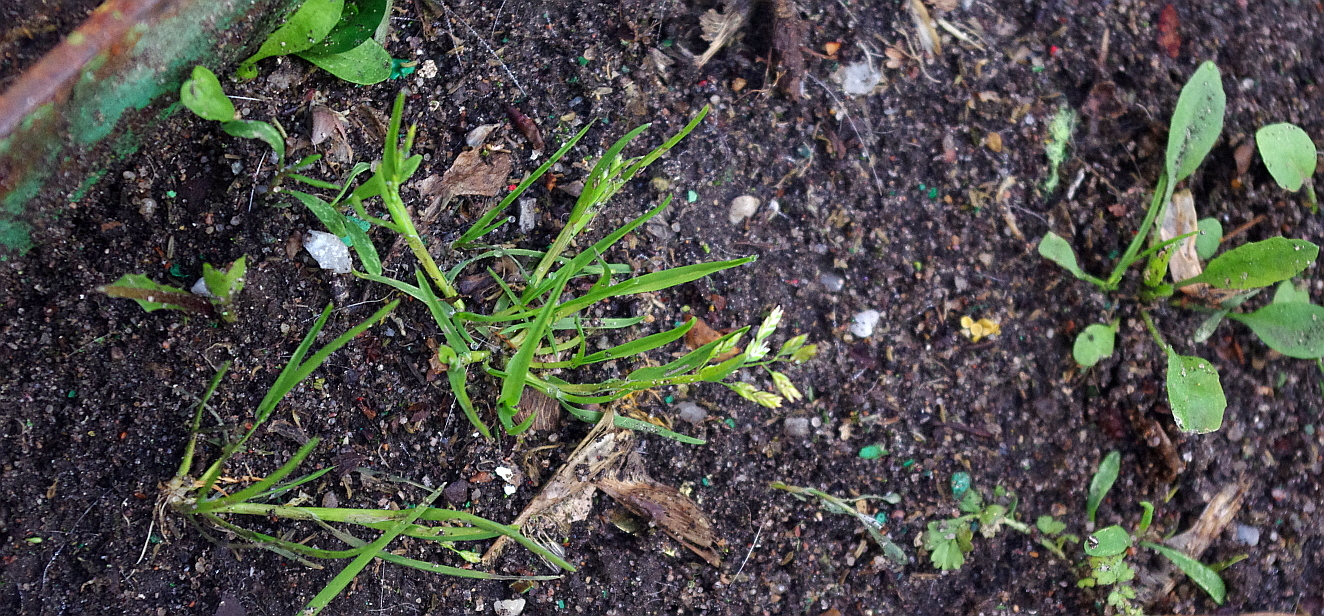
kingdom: Plantae
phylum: Tracheophyta
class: Liliopsida
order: Poales
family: Poaceae
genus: Poa
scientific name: Poa annua
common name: Annual bluegrass
